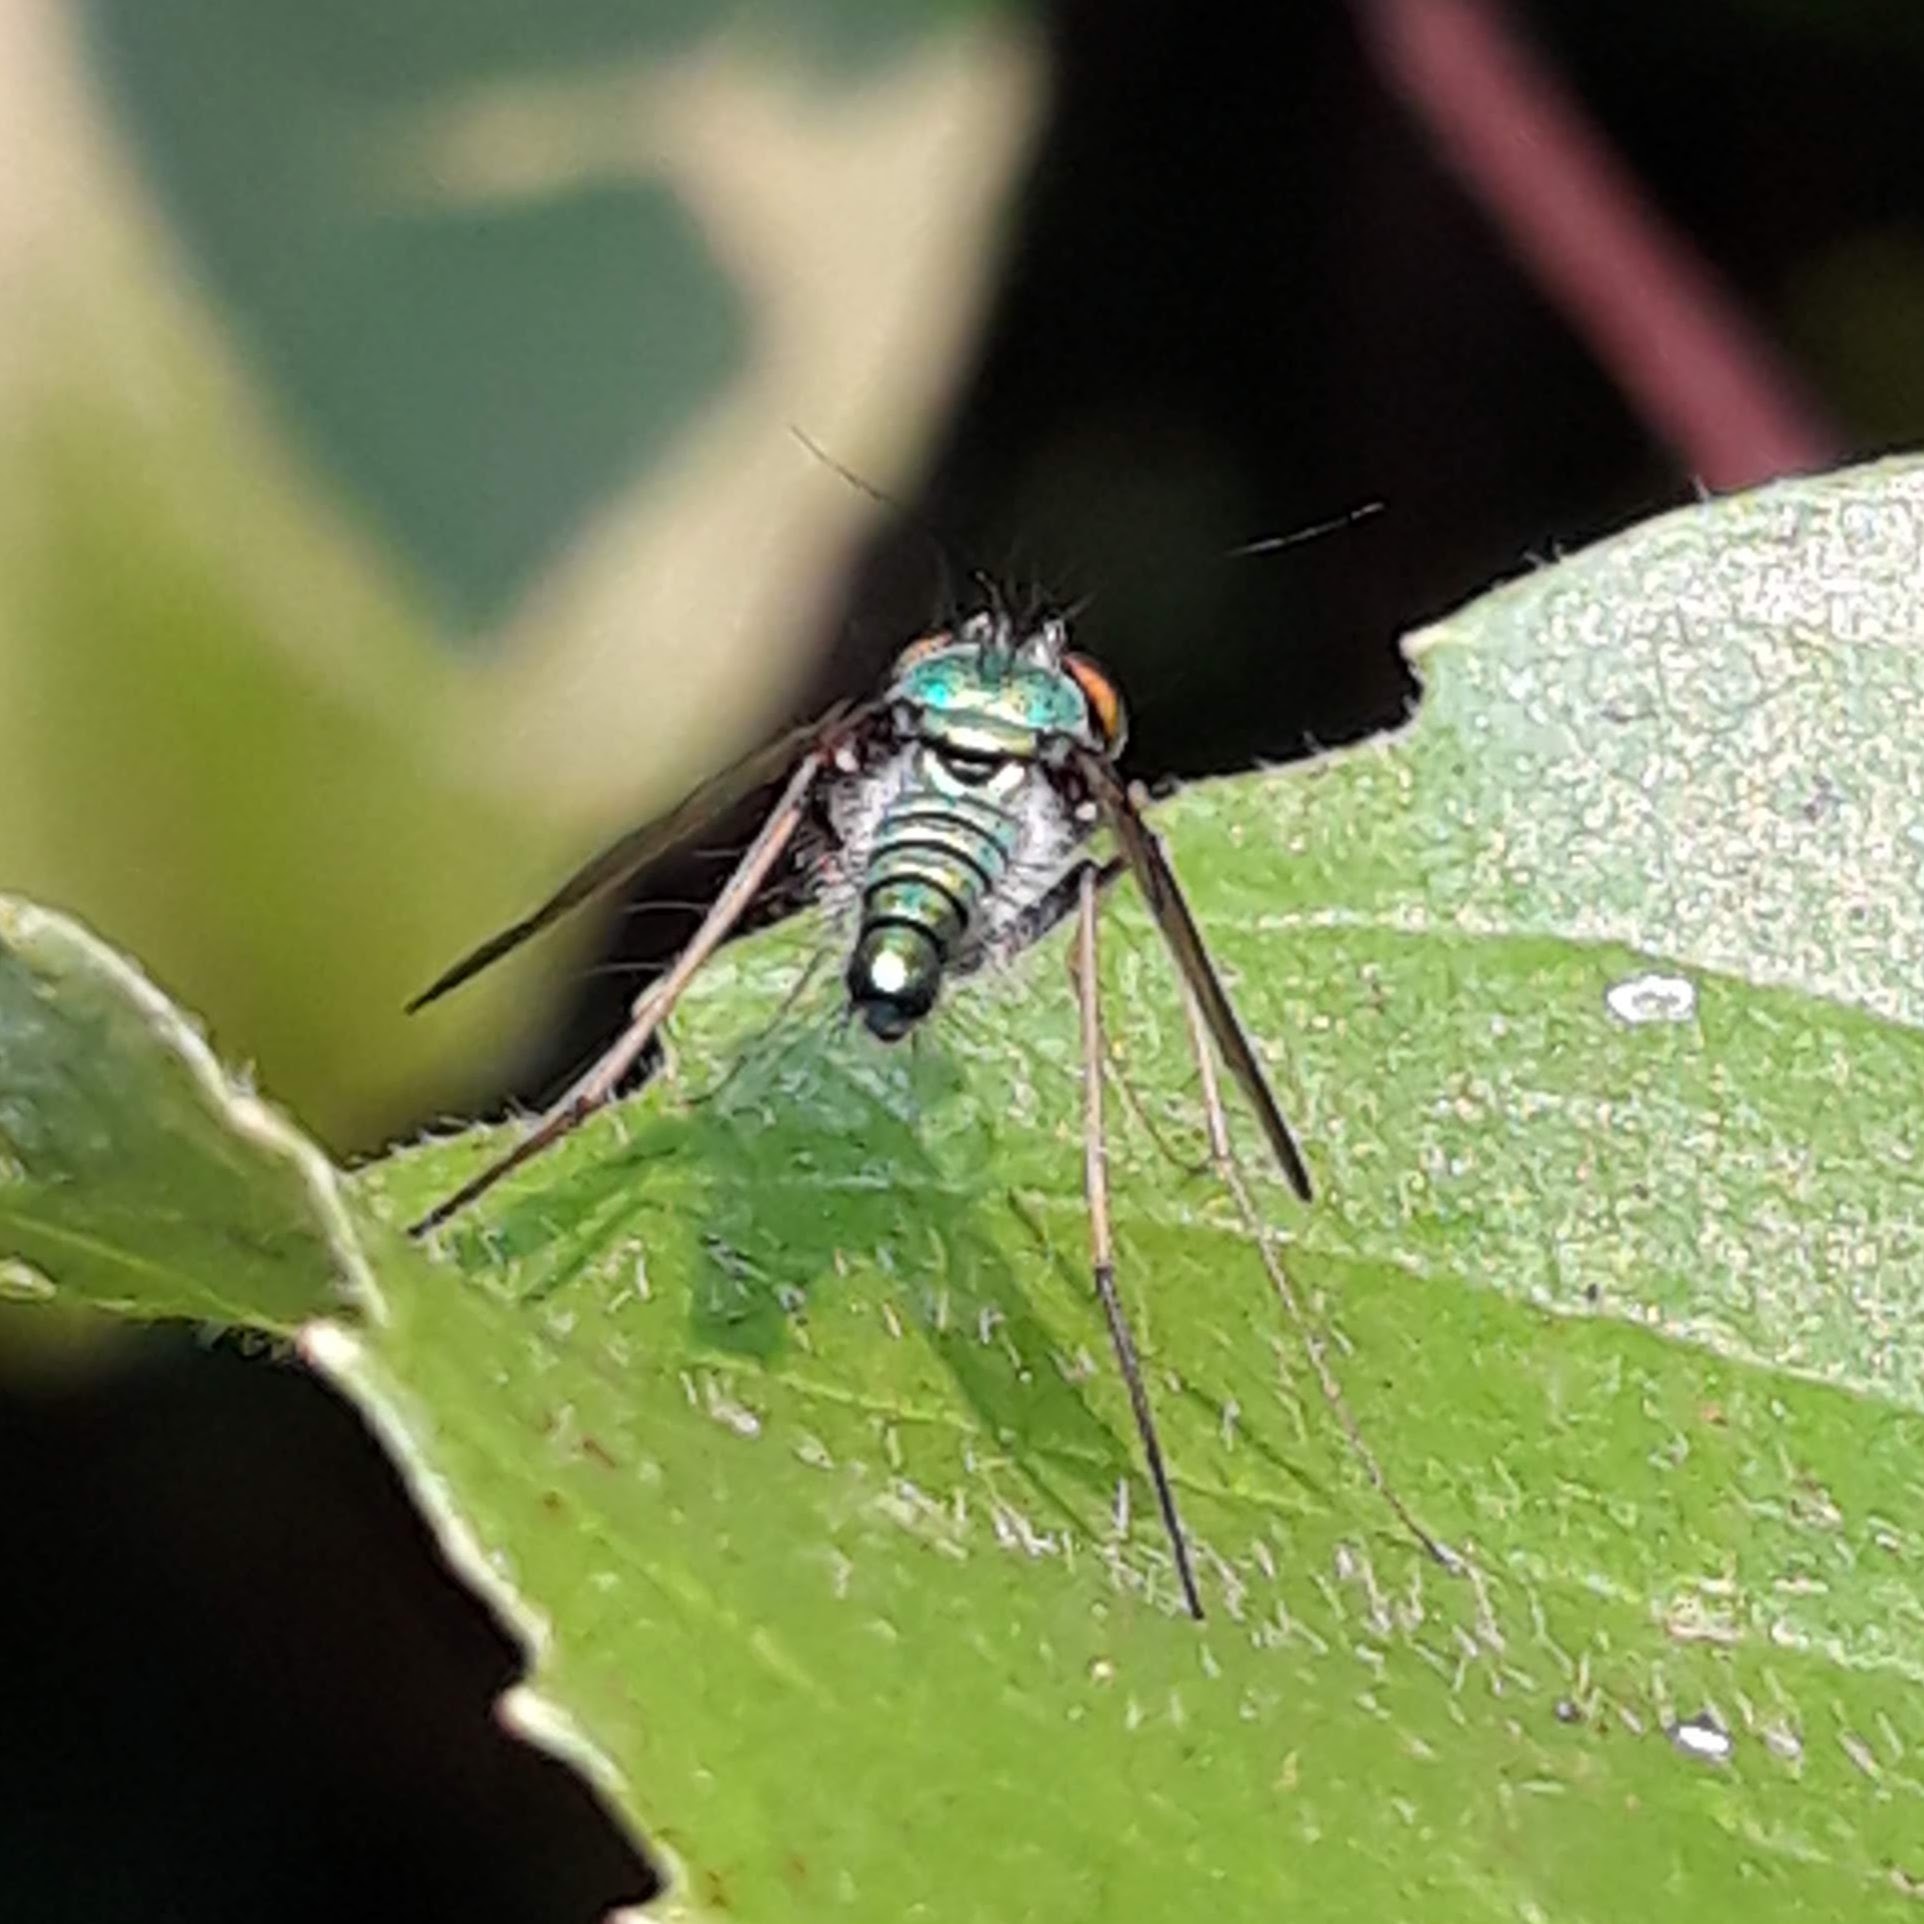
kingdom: Animalia
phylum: Arthropoda
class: Insecta
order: Diptera
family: Dolichopodidae
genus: Condylostylus
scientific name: Condylostylus
